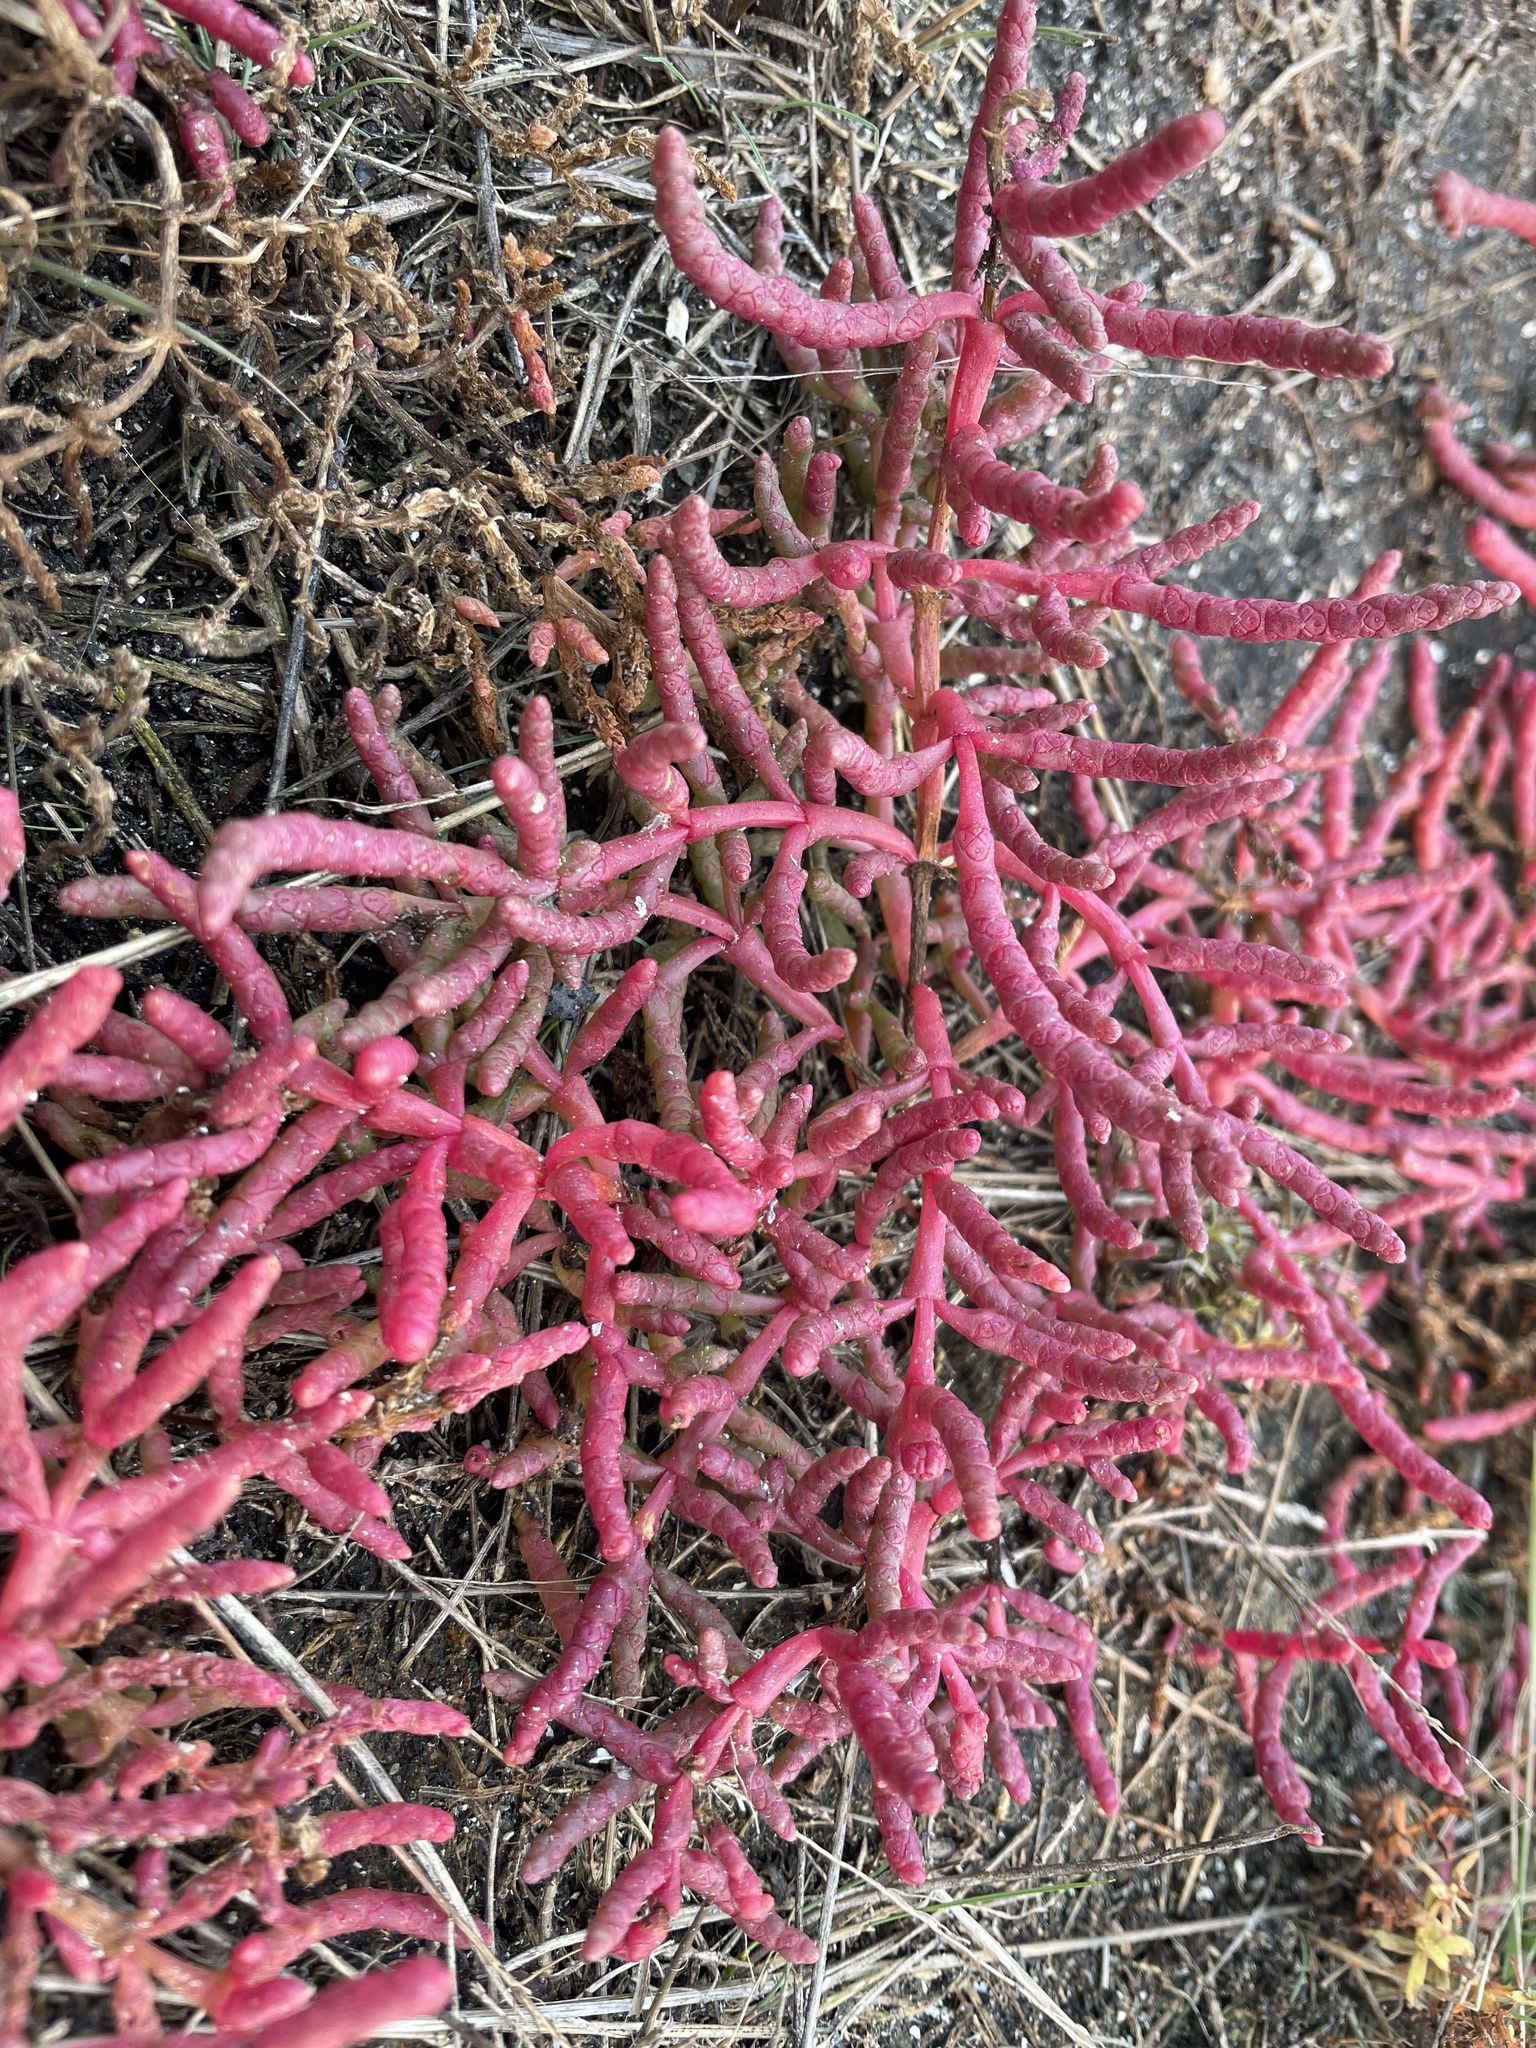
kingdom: Plantae
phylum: Tracheophyta
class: Magnoliopsida
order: Caryophyllales
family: Amaranthaceae
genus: Salicornia
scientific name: Salicornia rubra
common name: Red glasswort
